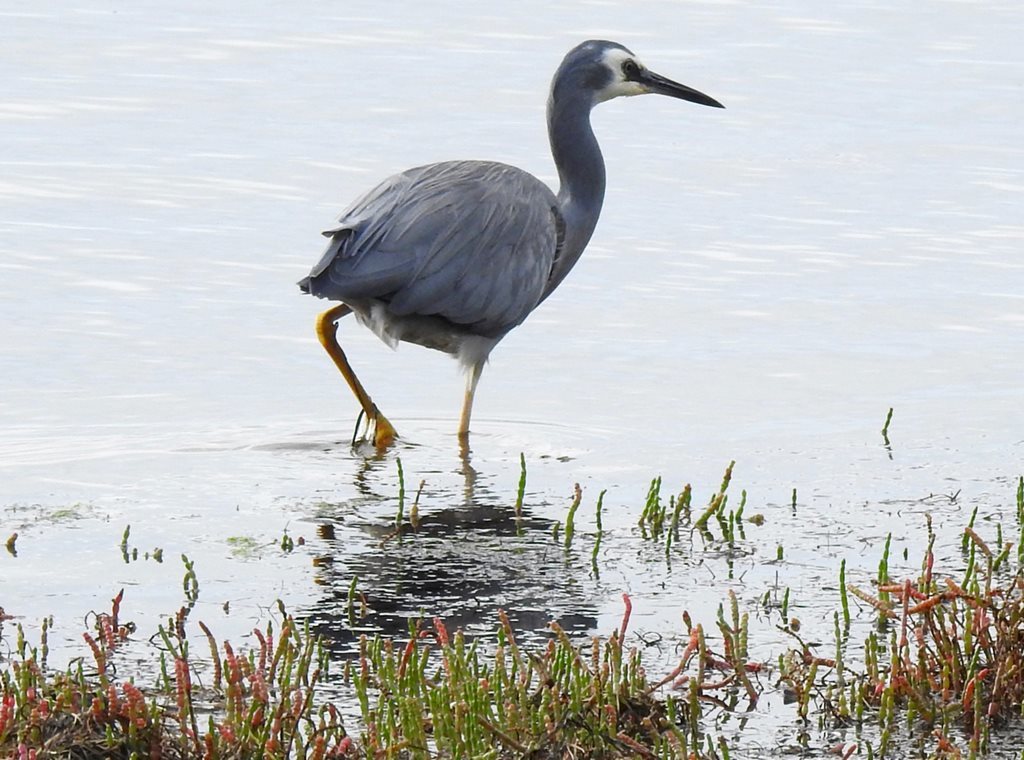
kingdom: Animalia
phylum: Chordata
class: Aves
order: Pelecaniformes
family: Ardeidae
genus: Egretta
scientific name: Egretta novaehollandiae
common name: White-faced heron
